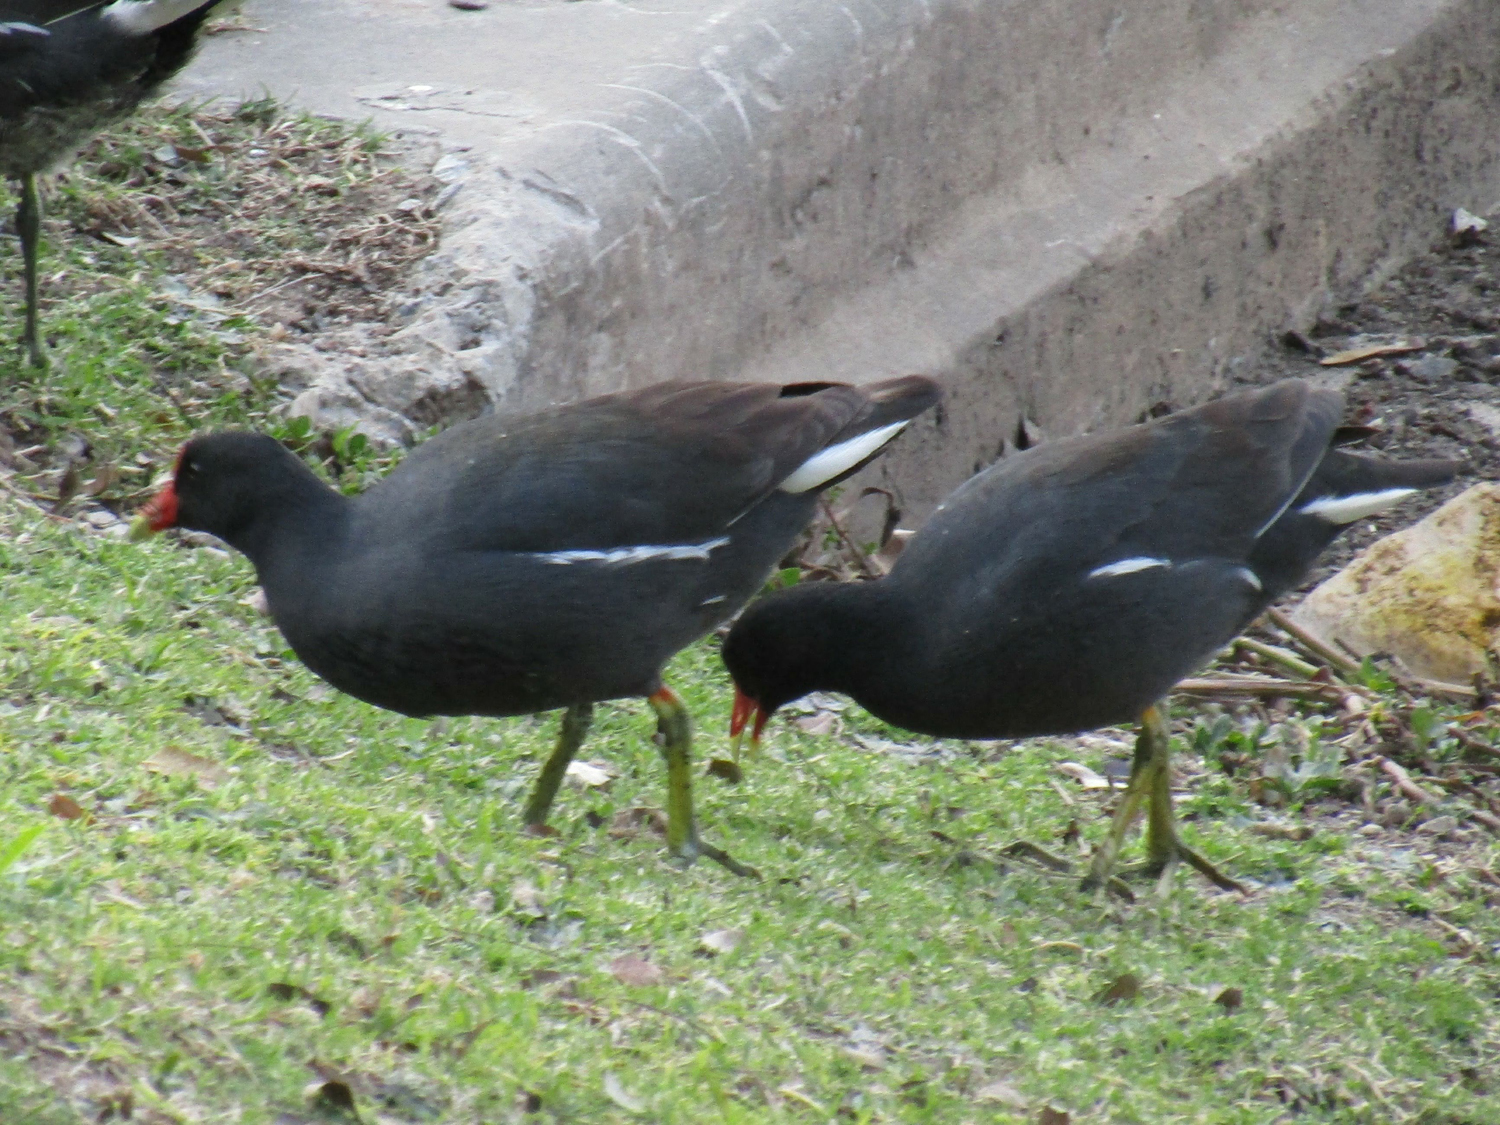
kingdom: Animalia
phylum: Chordata
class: Aves
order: Gruiformes
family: Rallidae
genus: Gallinula
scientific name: Gallinula chloropus
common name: Common moorhen
